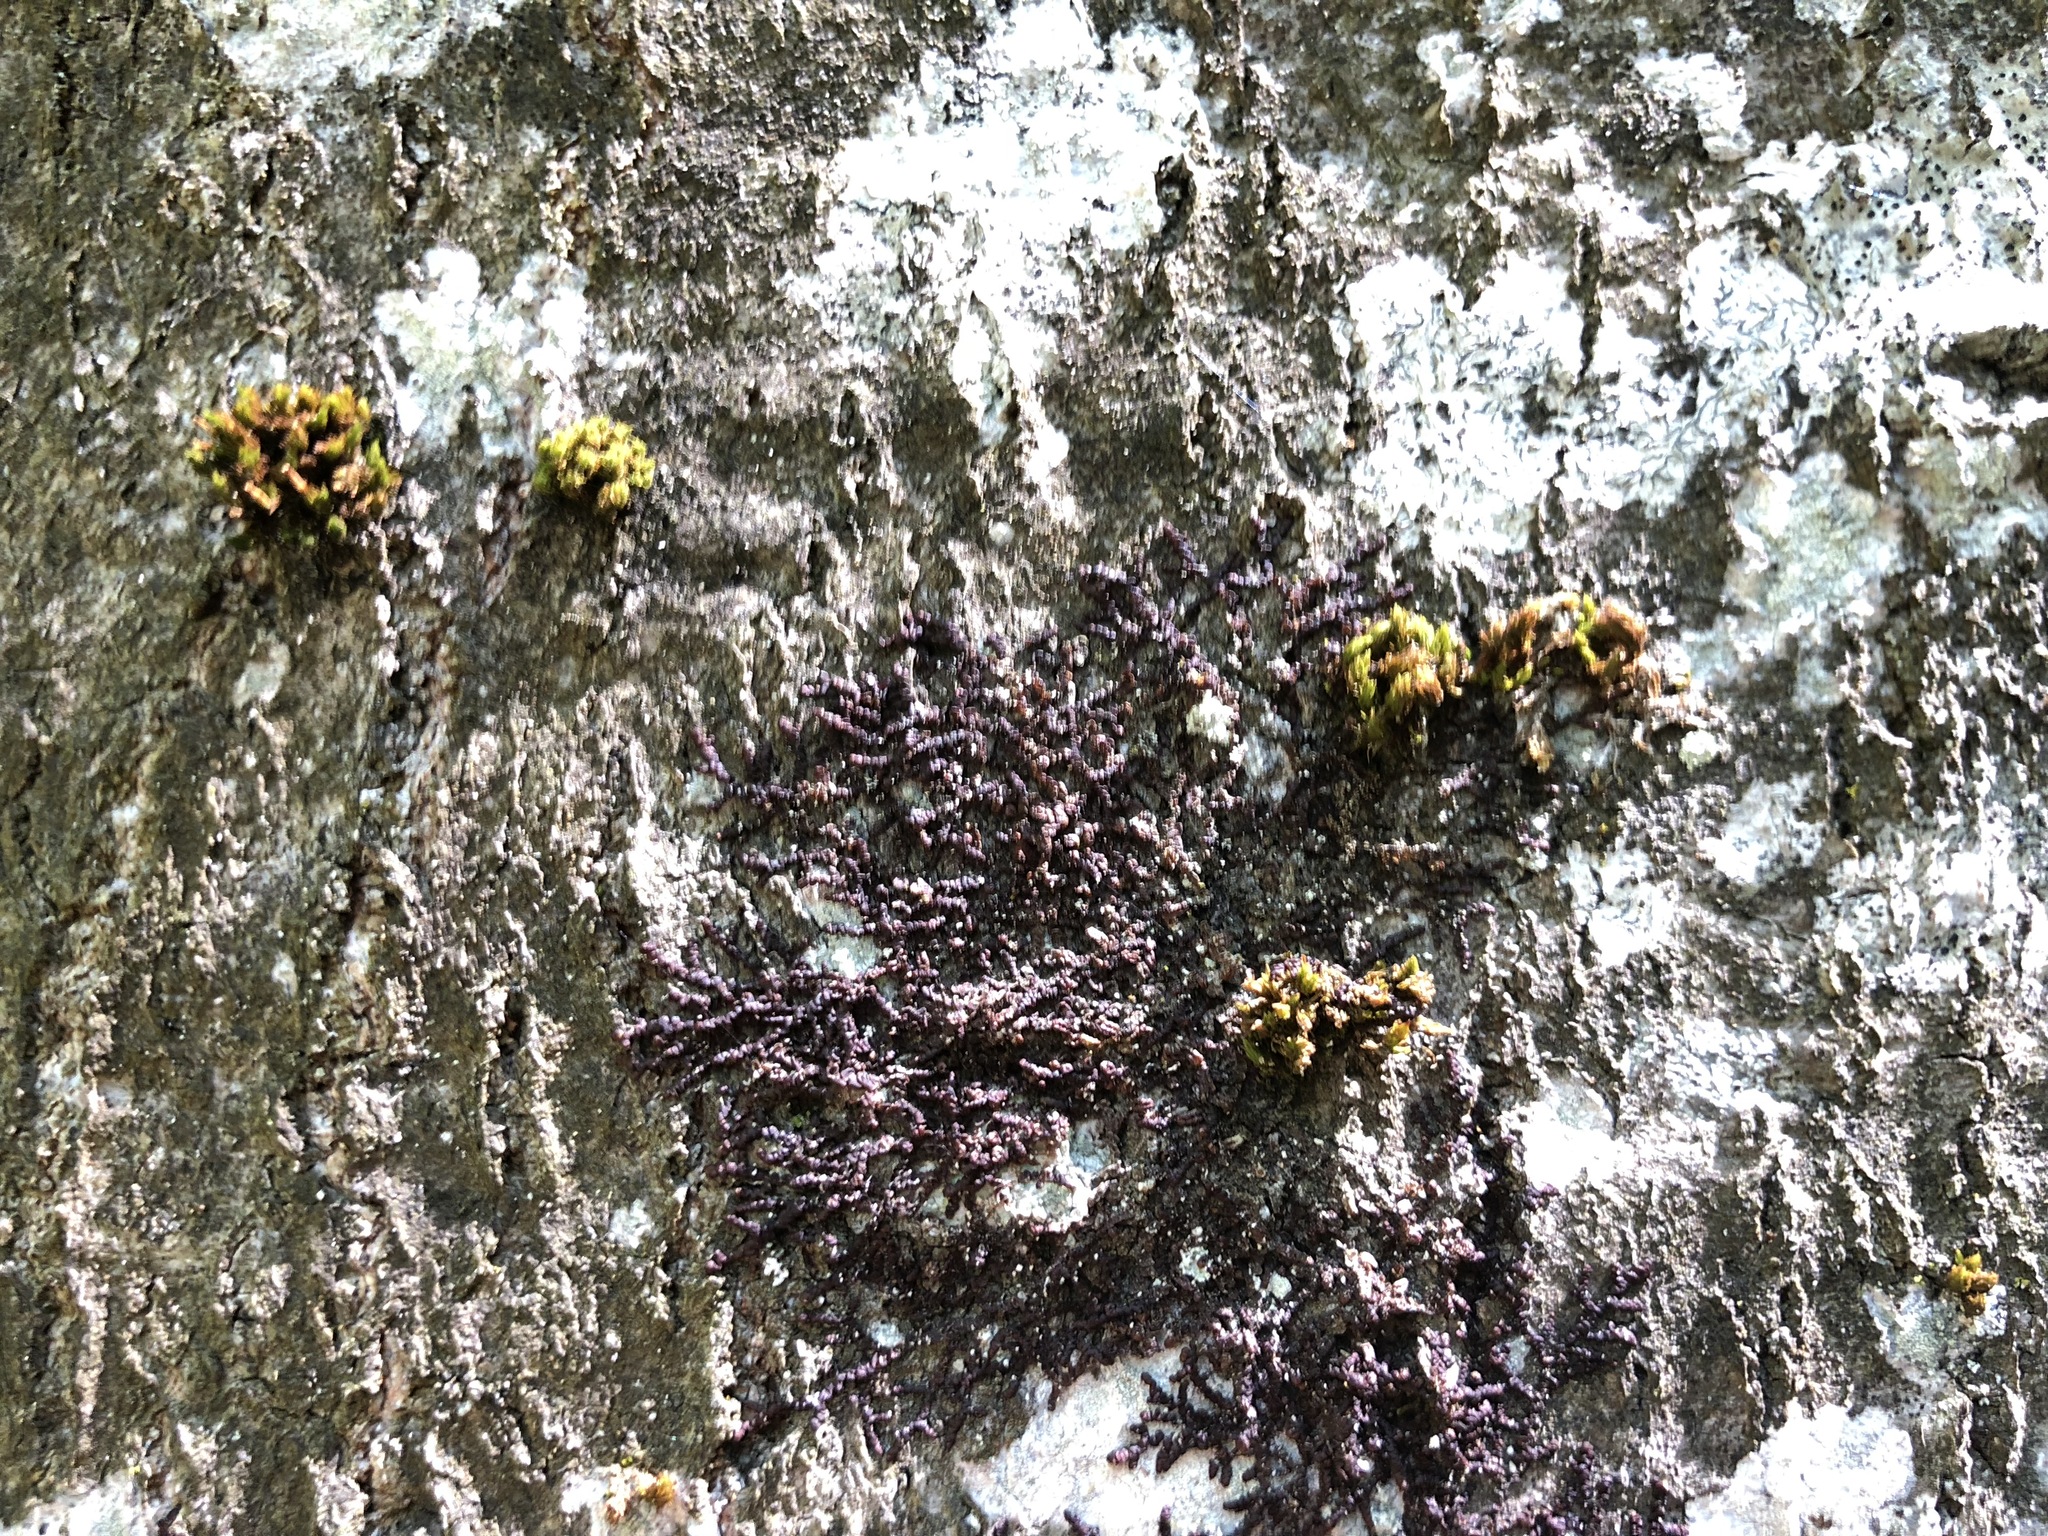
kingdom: Plantae
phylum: Marchantiophyta
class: Jungermanniopsida
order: Porellales
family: Frullaniaceae
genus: Frullania
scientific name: Frullania dilatata
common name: Dilated scalewort
